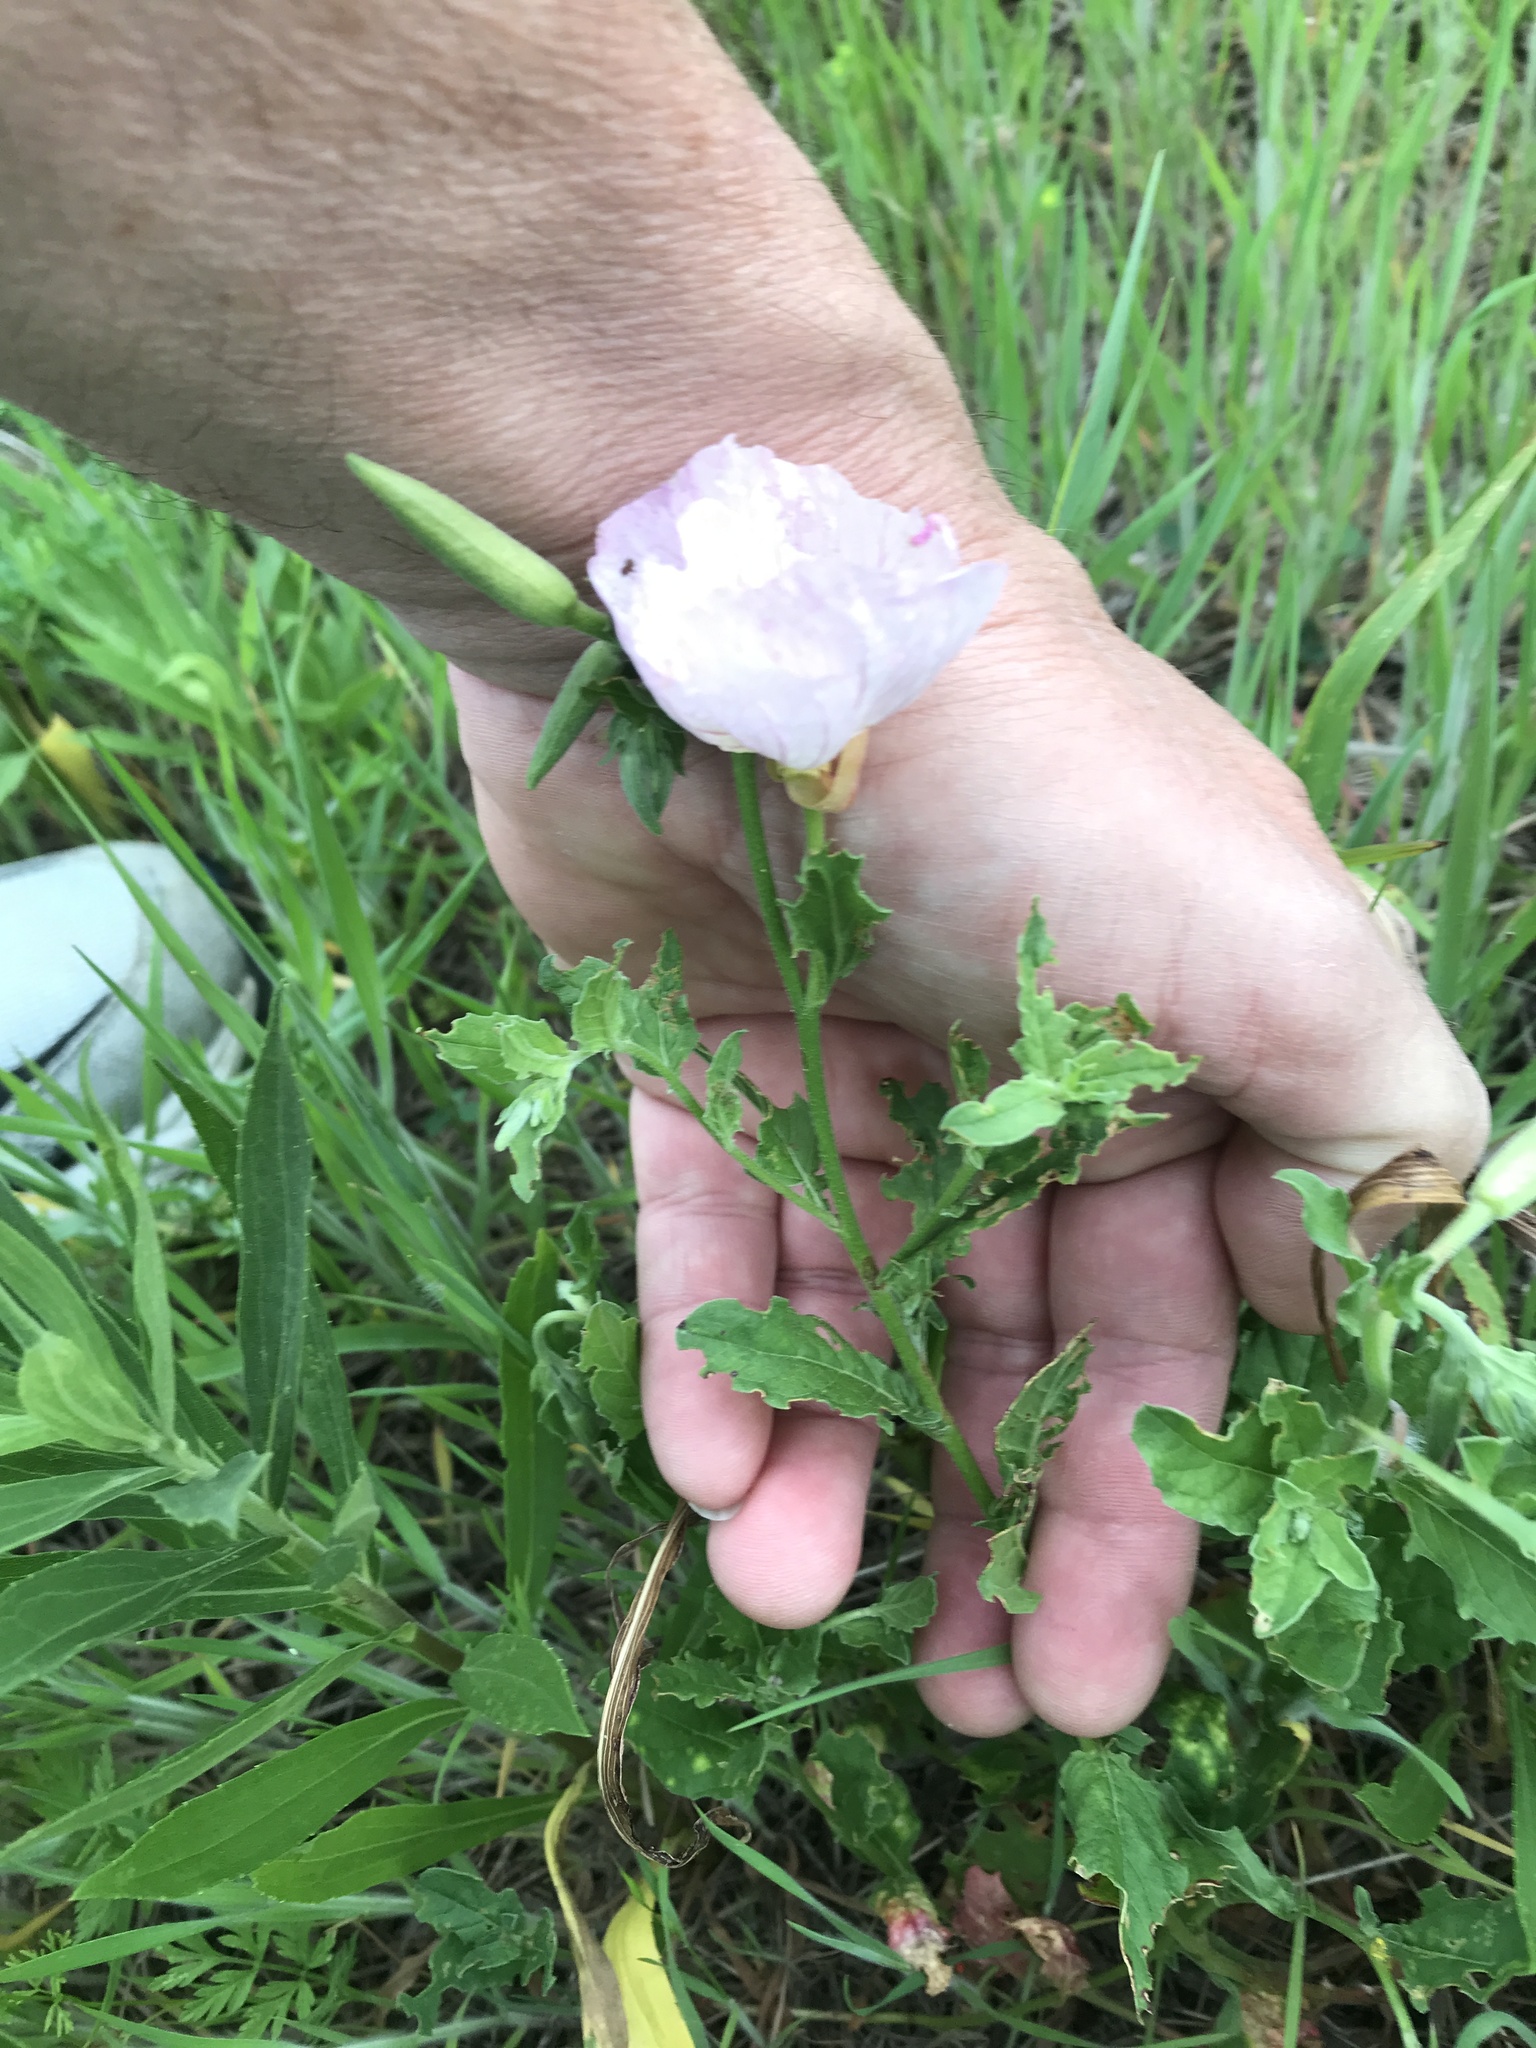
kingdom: Plantae
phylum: Tracheophyta
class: Magnoliopsida
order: Myrtales
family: Onagraceae
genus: Oenothera
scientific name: Oenothera speciosa
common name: White evening-primrose
